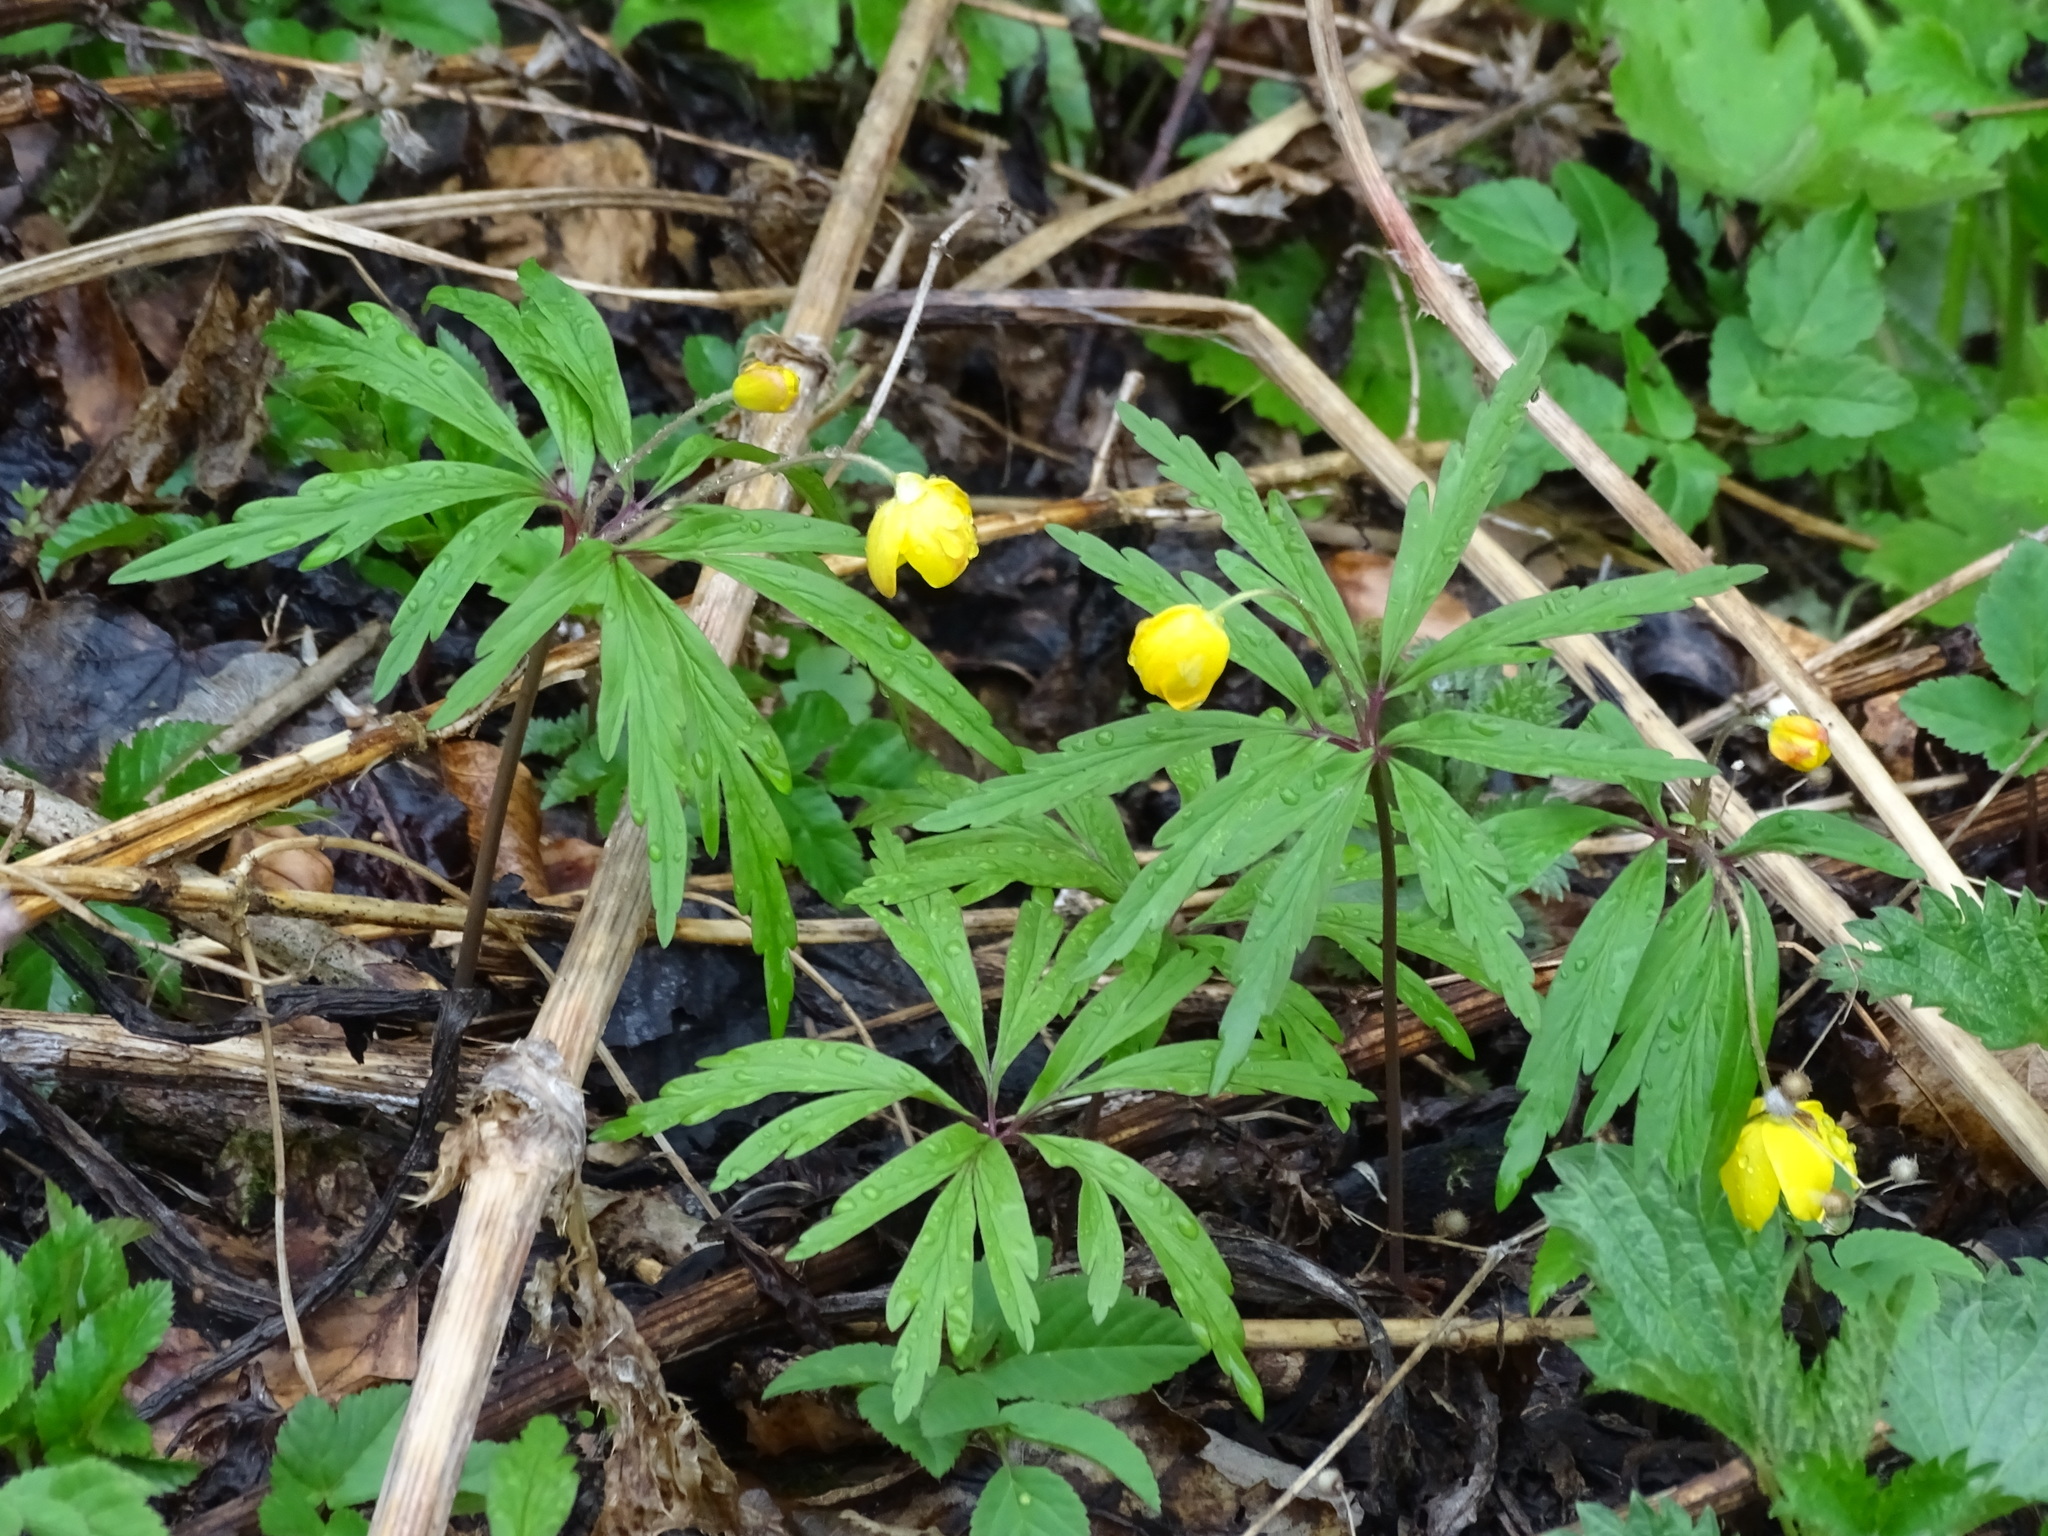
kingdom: Plantae
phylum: Tracheophyta
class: Magnoliopsida
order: Ranunculales
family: Ranunculaceae
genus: Anemone
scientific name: Anemone ranunculoides
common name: Yellow anemone
